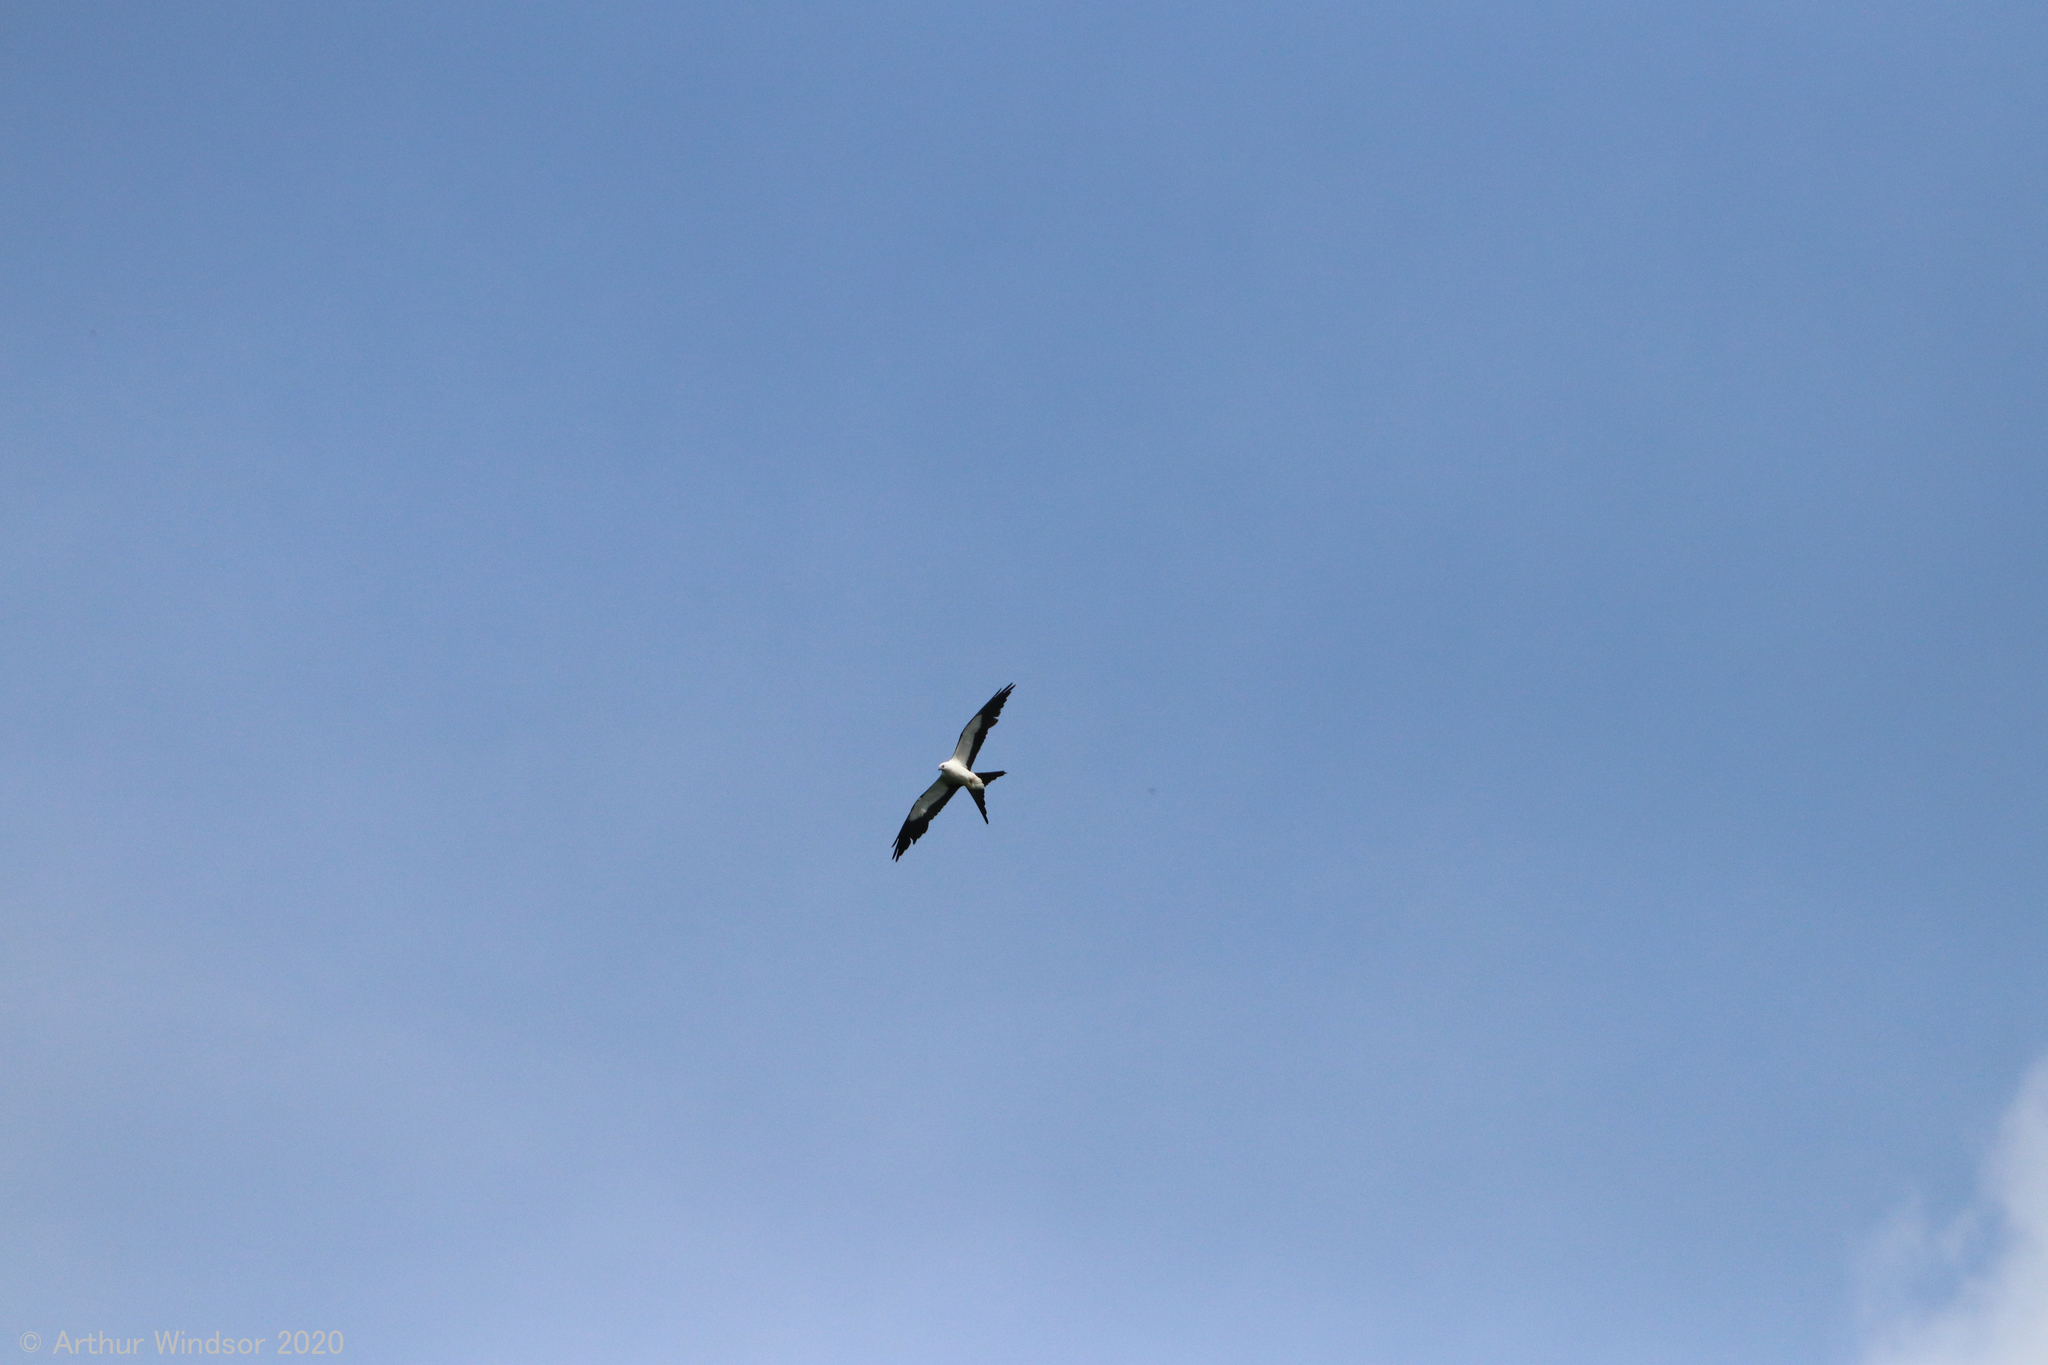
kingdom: Animalia
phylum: Chordata
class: Aves
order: Accipitriformes
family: Accipitridae
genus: Elanoides
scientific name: Elanoides forficatus
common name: Swallow-tailed kite
